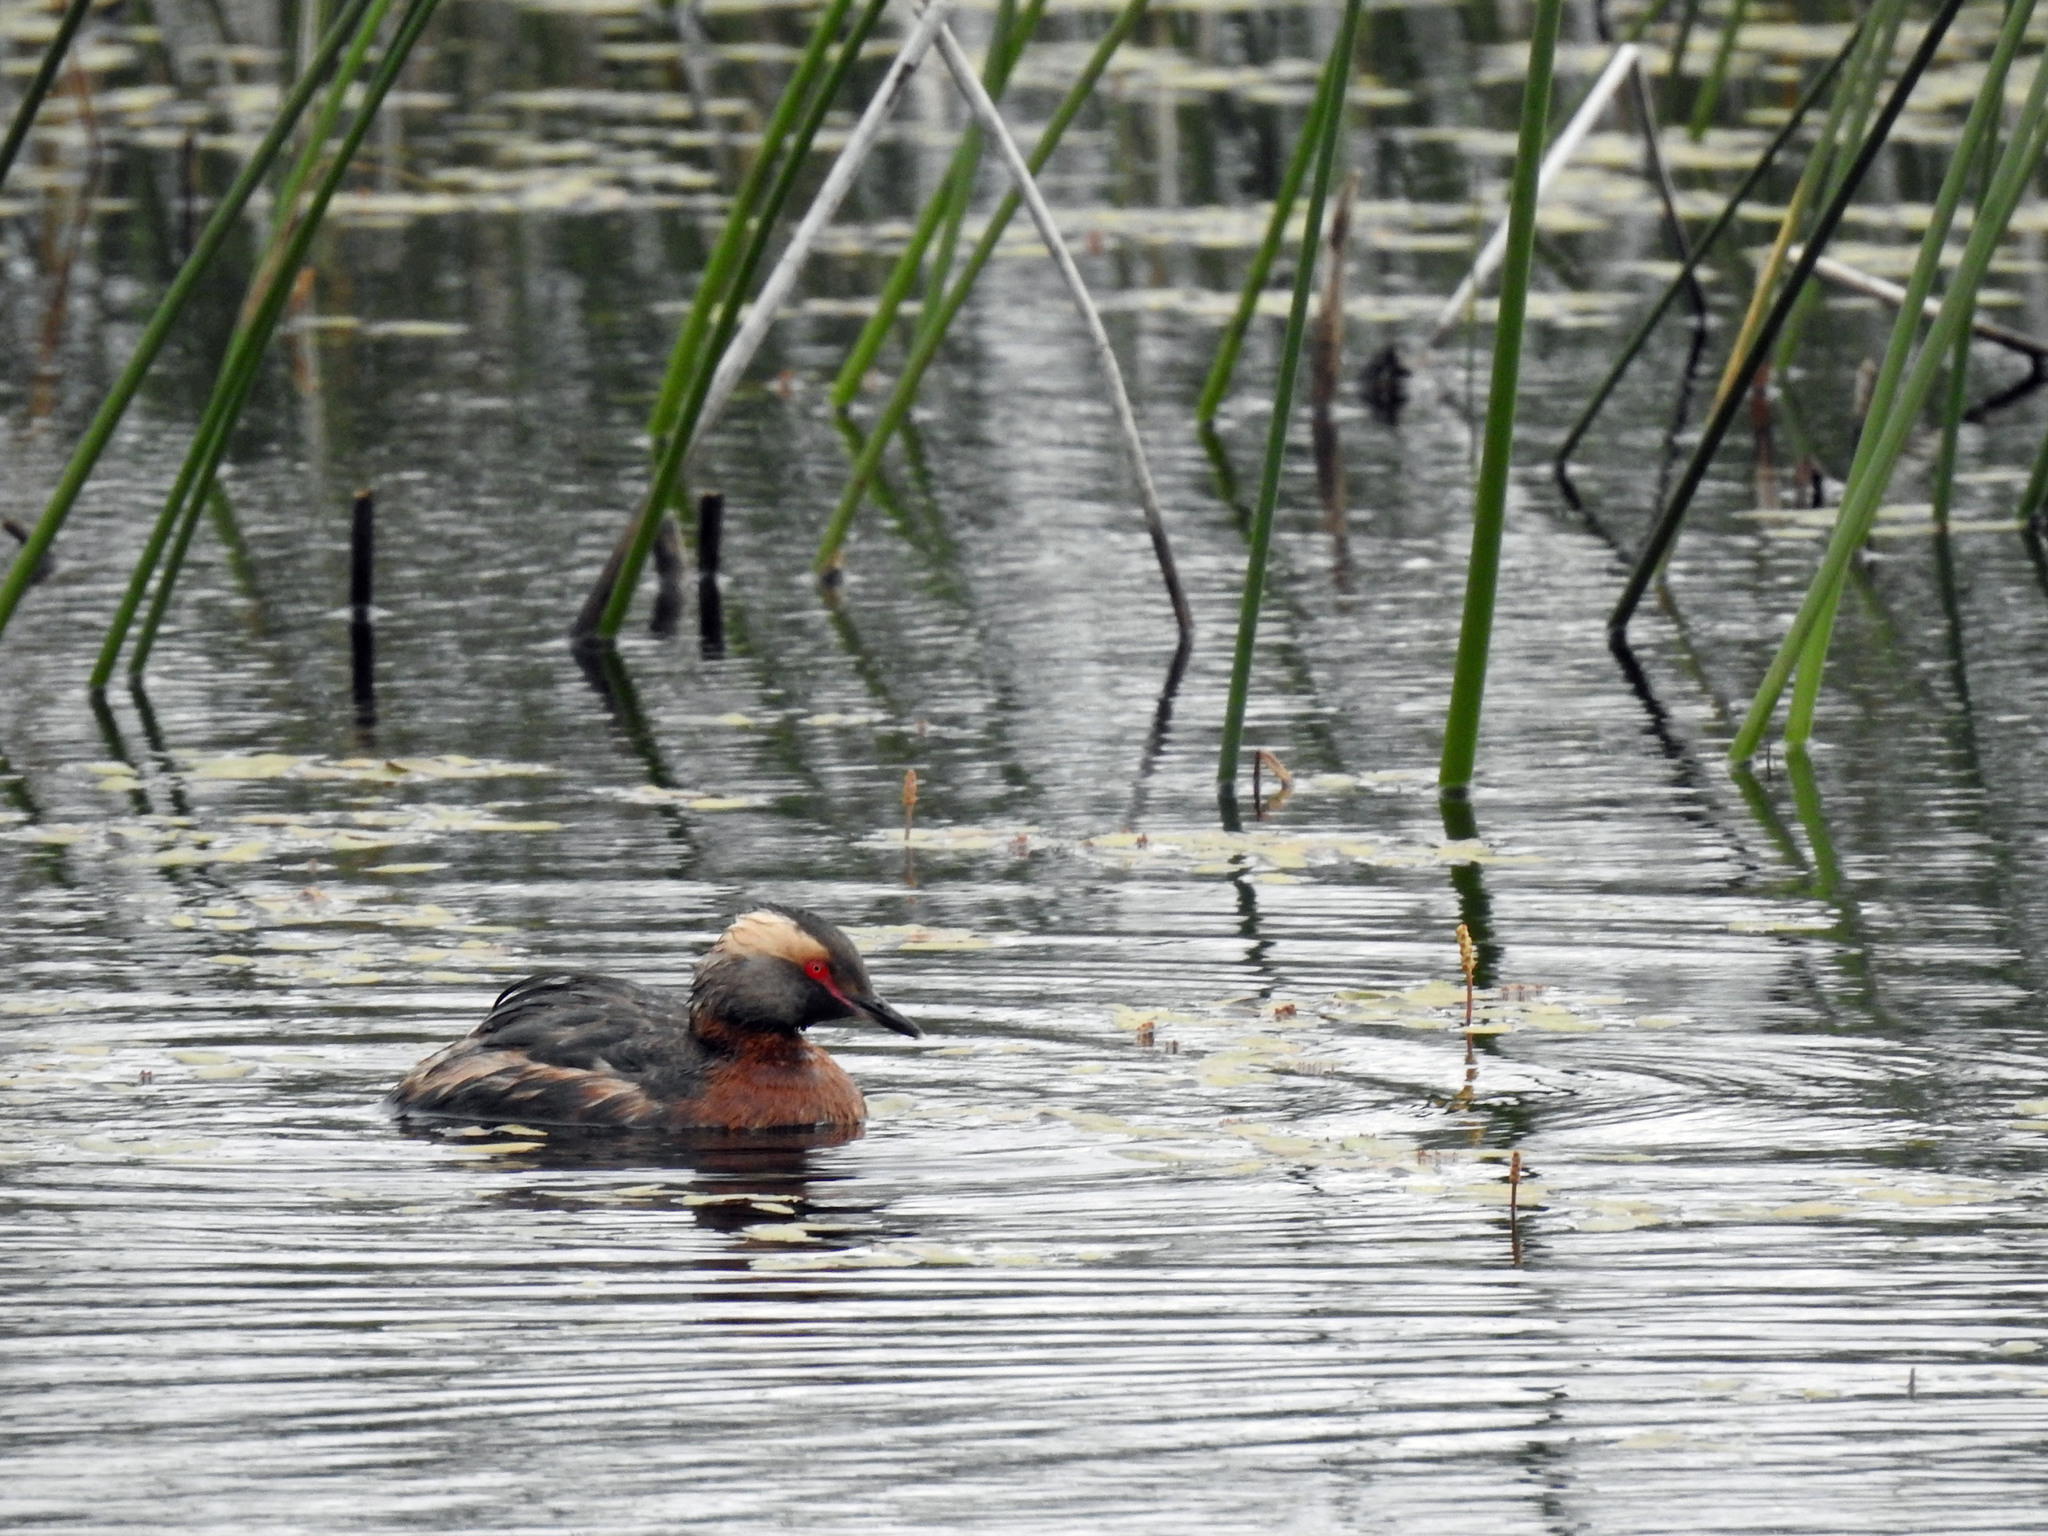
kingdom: Animalia
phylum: Chordata
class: Aves
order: Podicipediformes
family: Podicipedidae
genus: Podiceps
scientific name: Podiceps auritus
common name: Horned grebe
